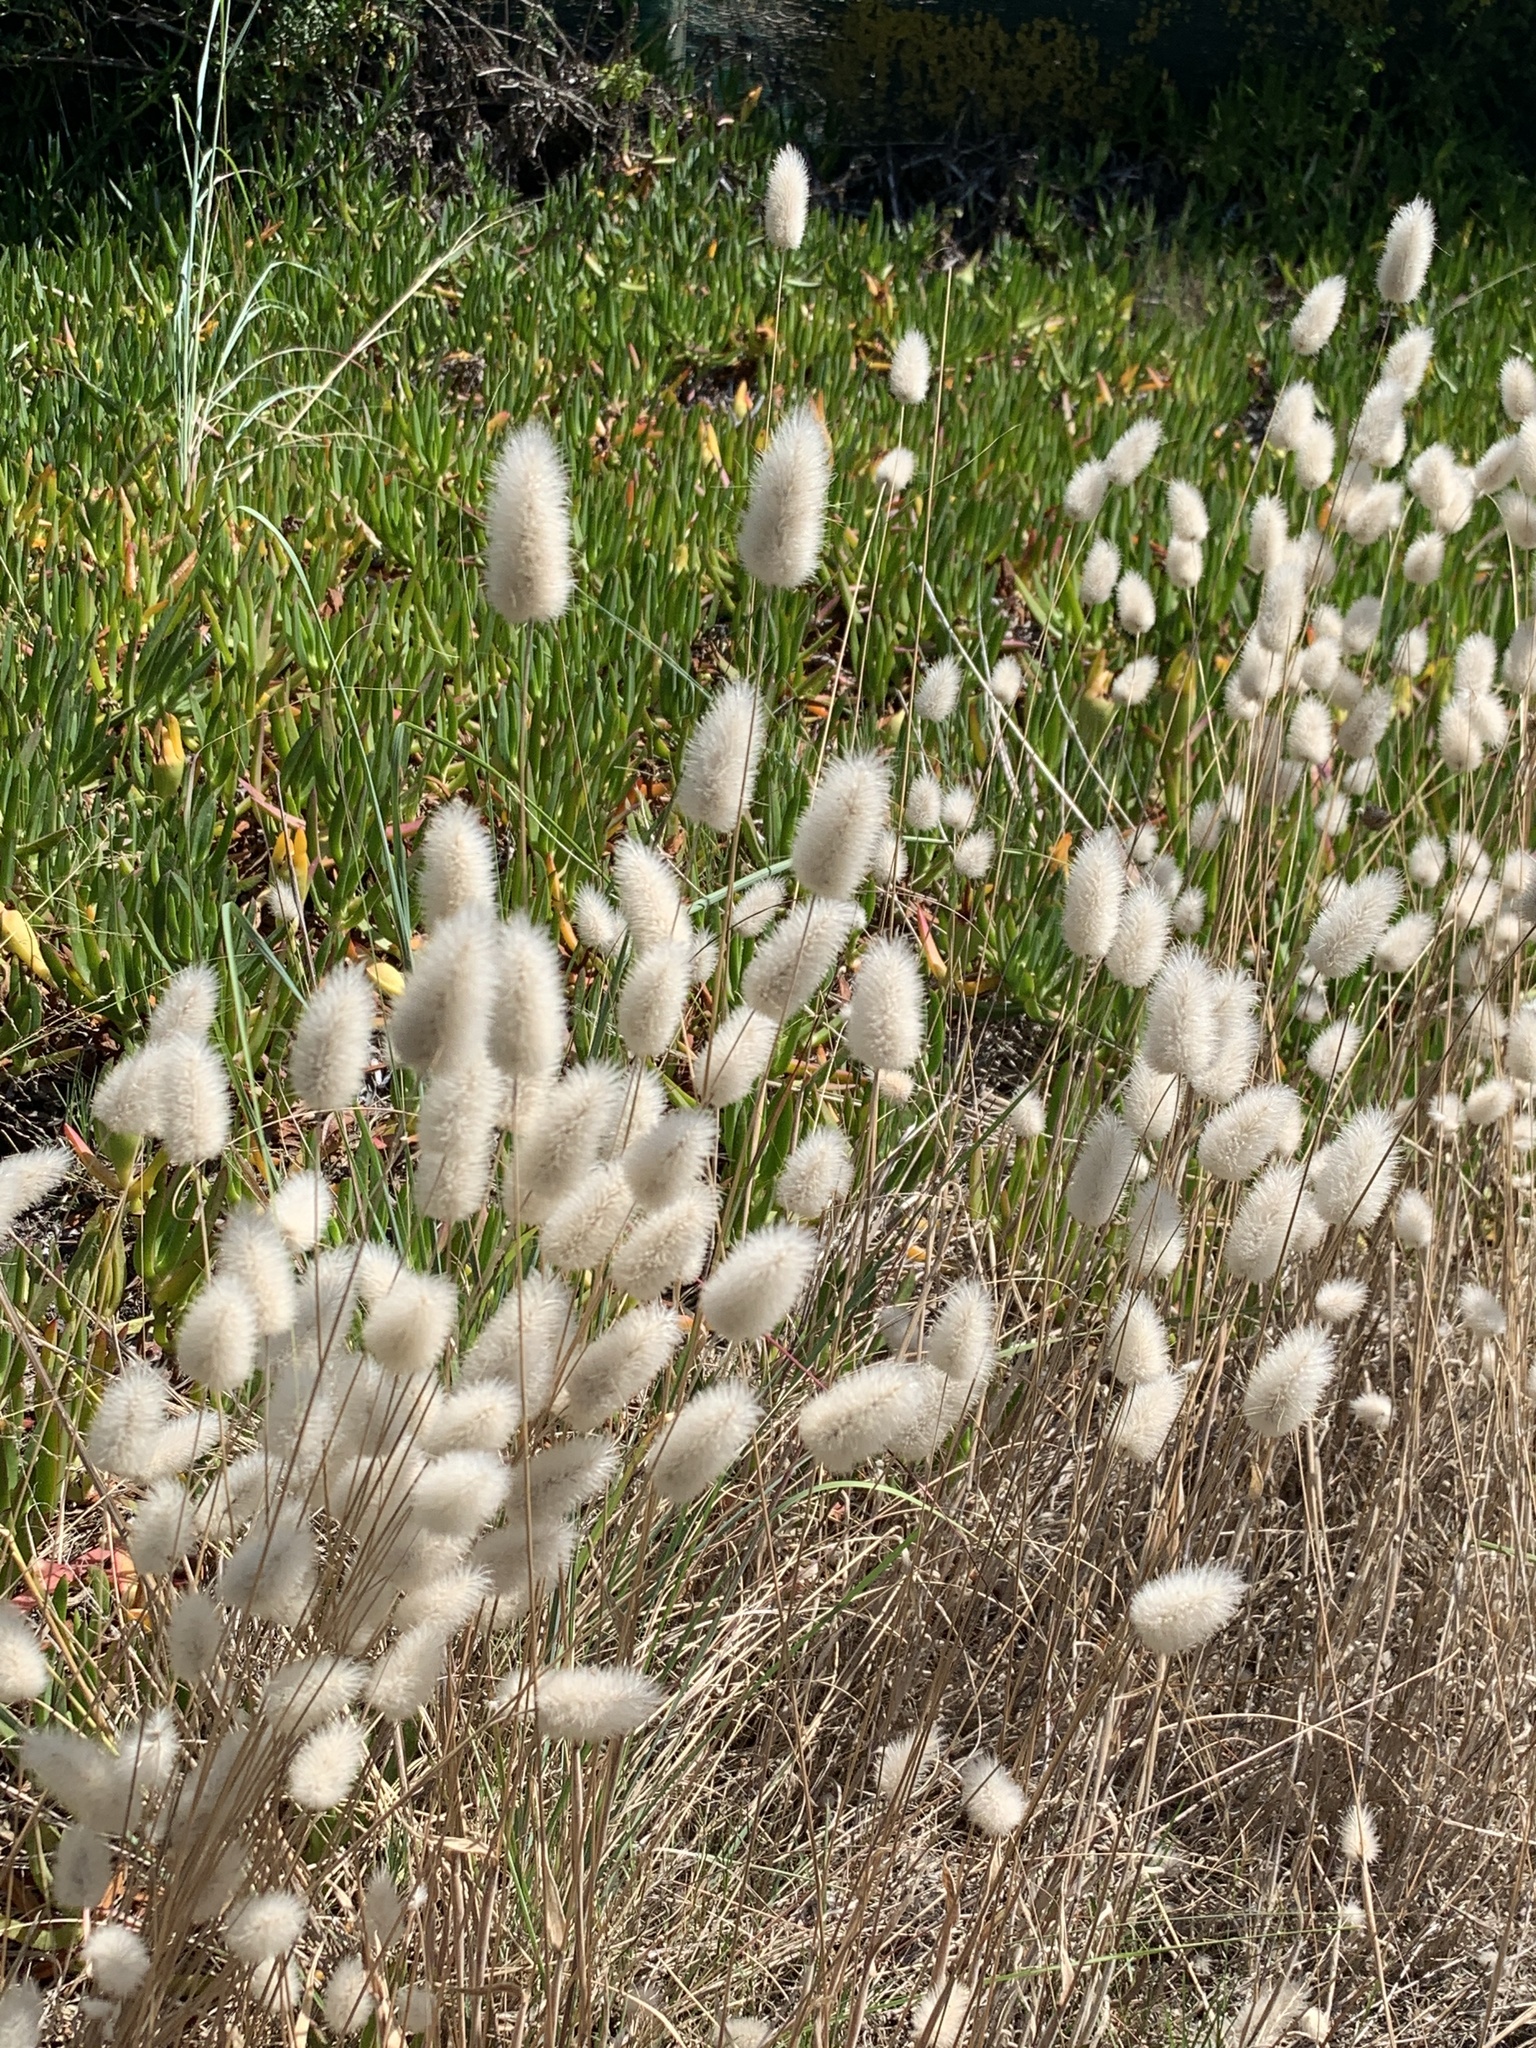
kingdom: Plantae
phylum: Tracheophyta
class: Liliopsida
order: Poales
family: Poaceae
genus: Lagurus
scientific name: Lagurus ovatus
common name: Hare's-tail
